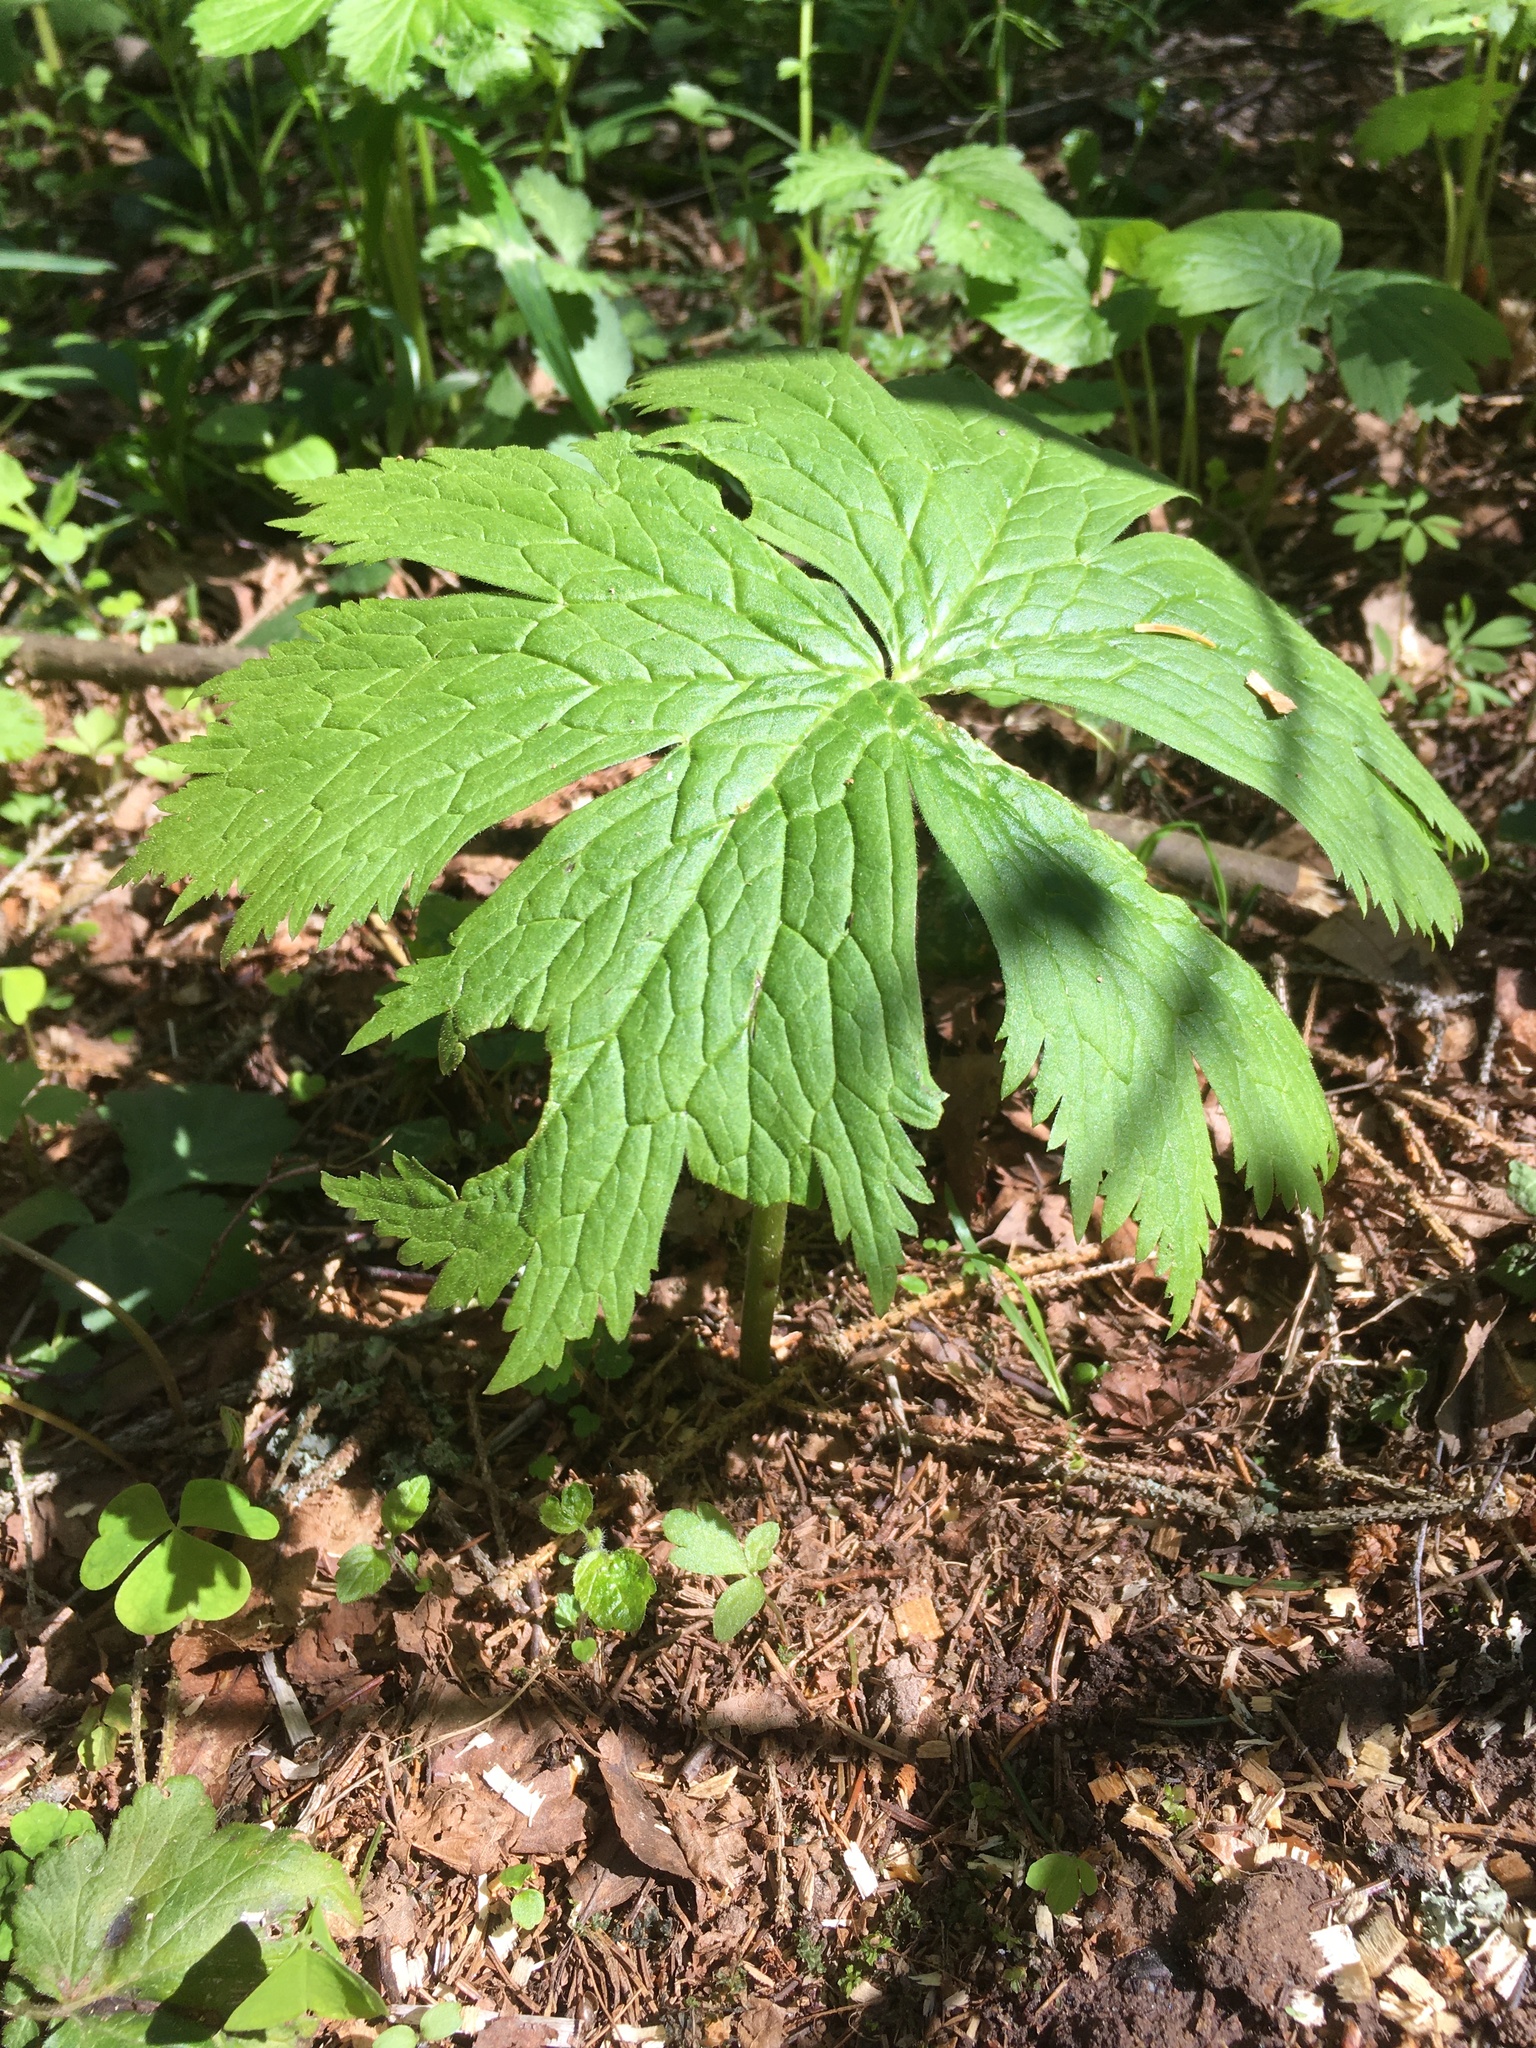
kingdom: Plantae
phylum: Tracheophyta
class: Magnoliopsida
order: Ranunculales
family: Ranunculaceae
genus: Aconitum
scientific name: Aconitum septentrionale
